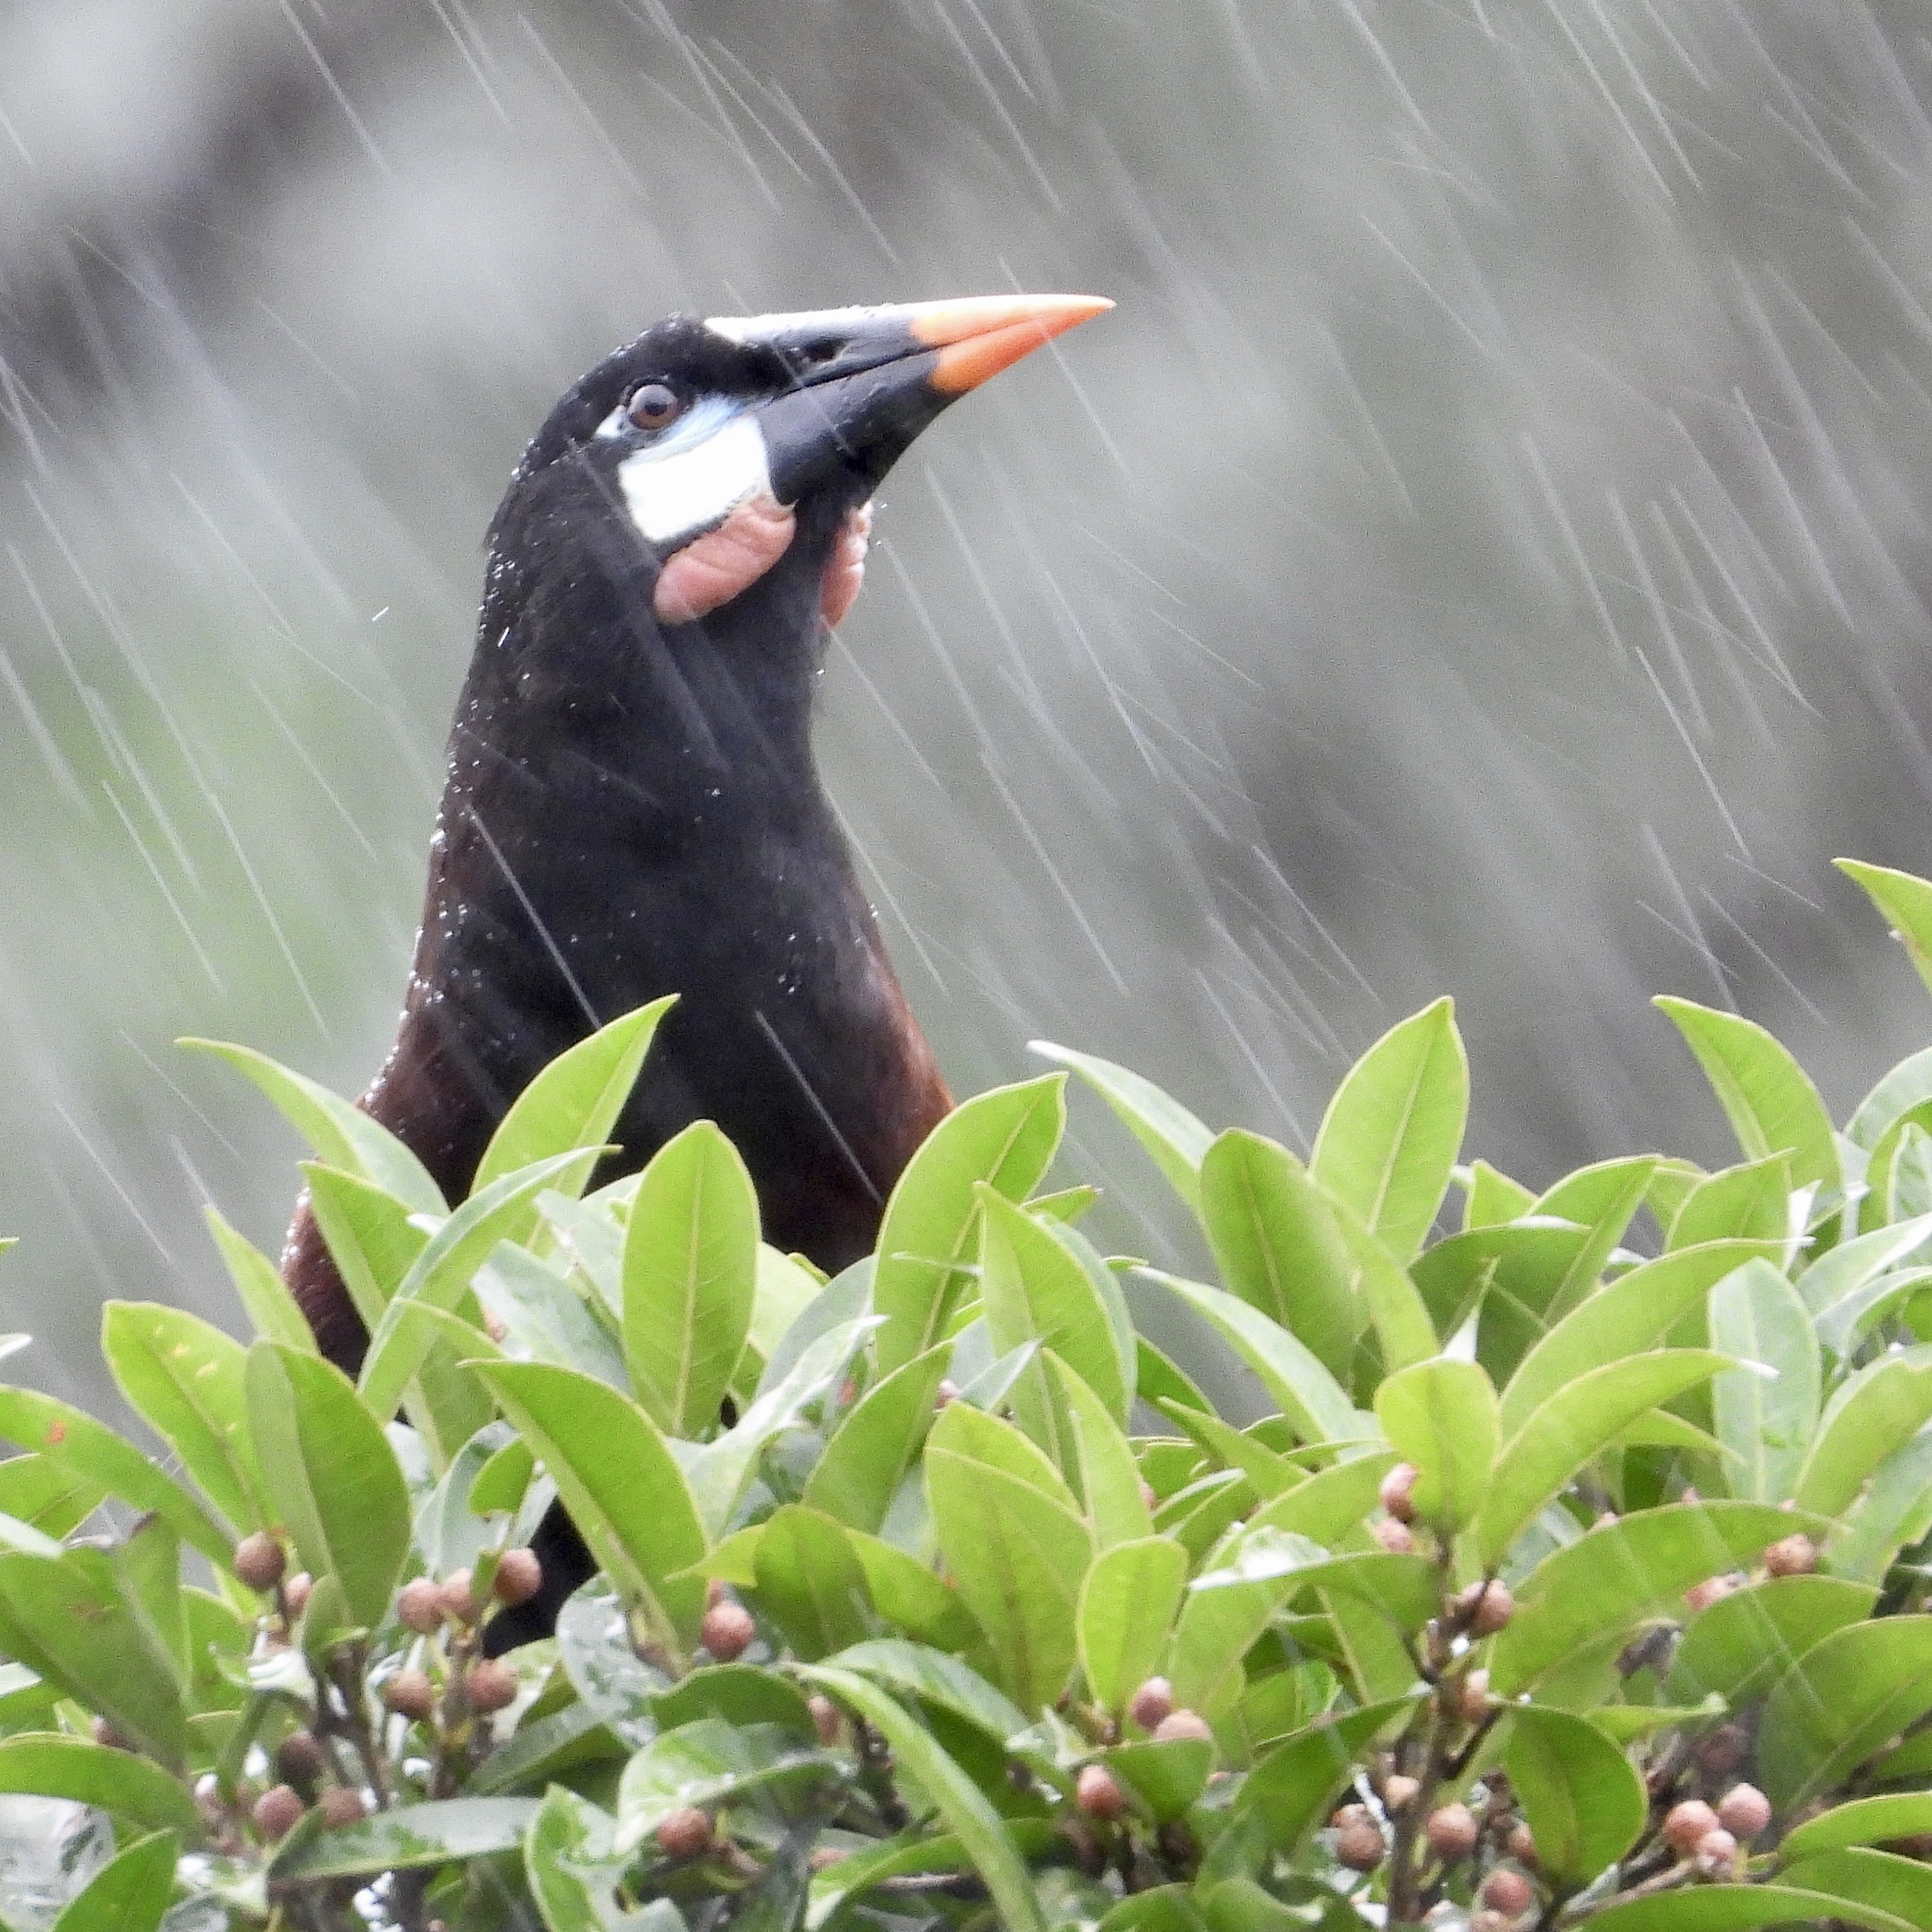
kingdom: Animalia
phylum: Chordata
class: Aves
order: Passeriformes
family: Icteridae
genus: Psarocolius
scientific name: Psarocolius montezuma
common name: Montezuma oropendola
